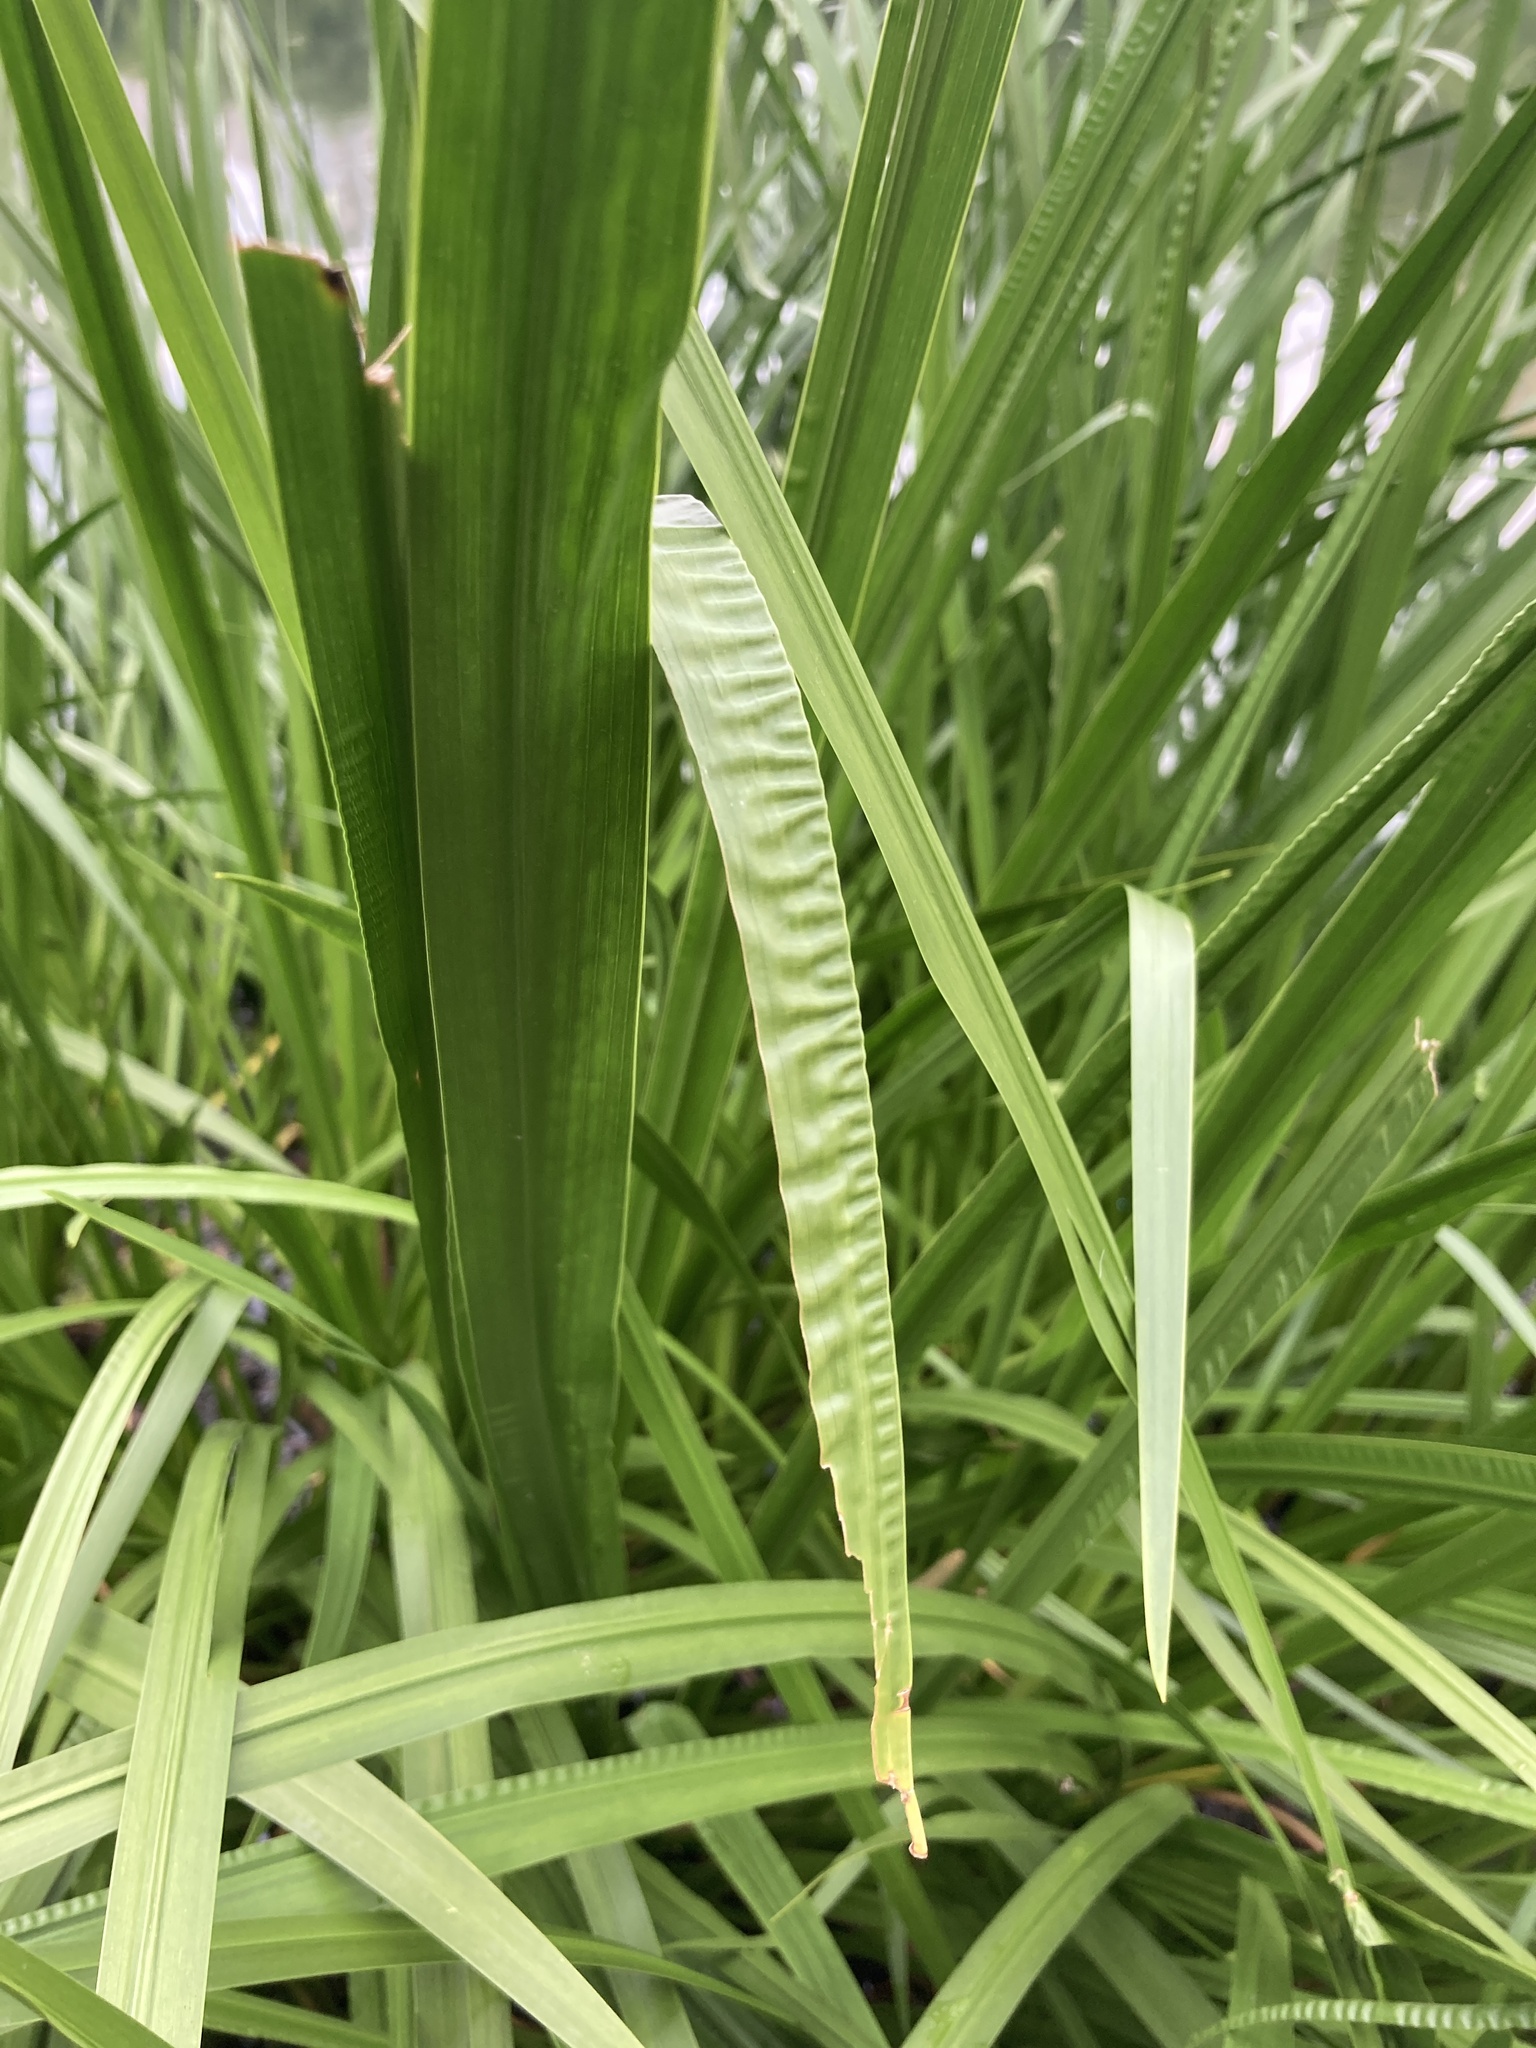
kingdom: Plantae
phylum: Tracheophyta
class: Liliopsida
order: Acorales
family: Acoraceae
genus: Acorus
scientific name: Acorus calamus
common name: Sweet-flag
